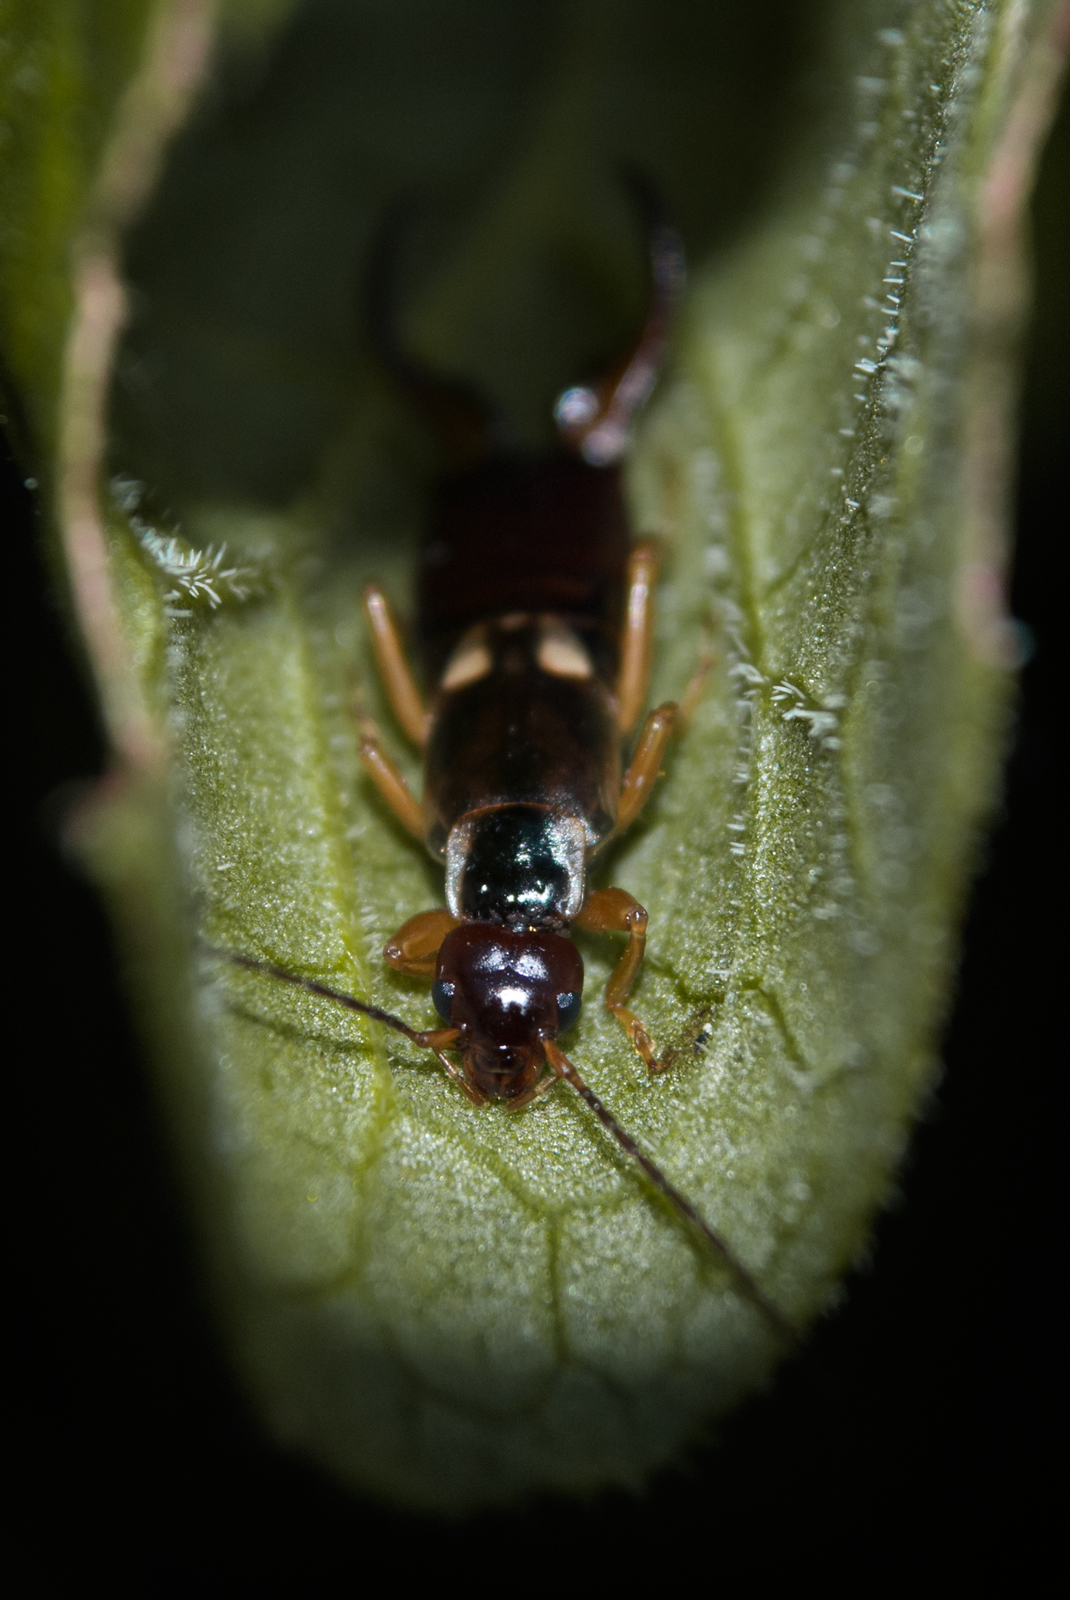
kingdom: Animalia
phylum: Arthropoda
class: Insecta
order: Dermaptera
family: Forficulidae
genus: Forficula
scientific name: Forficula
